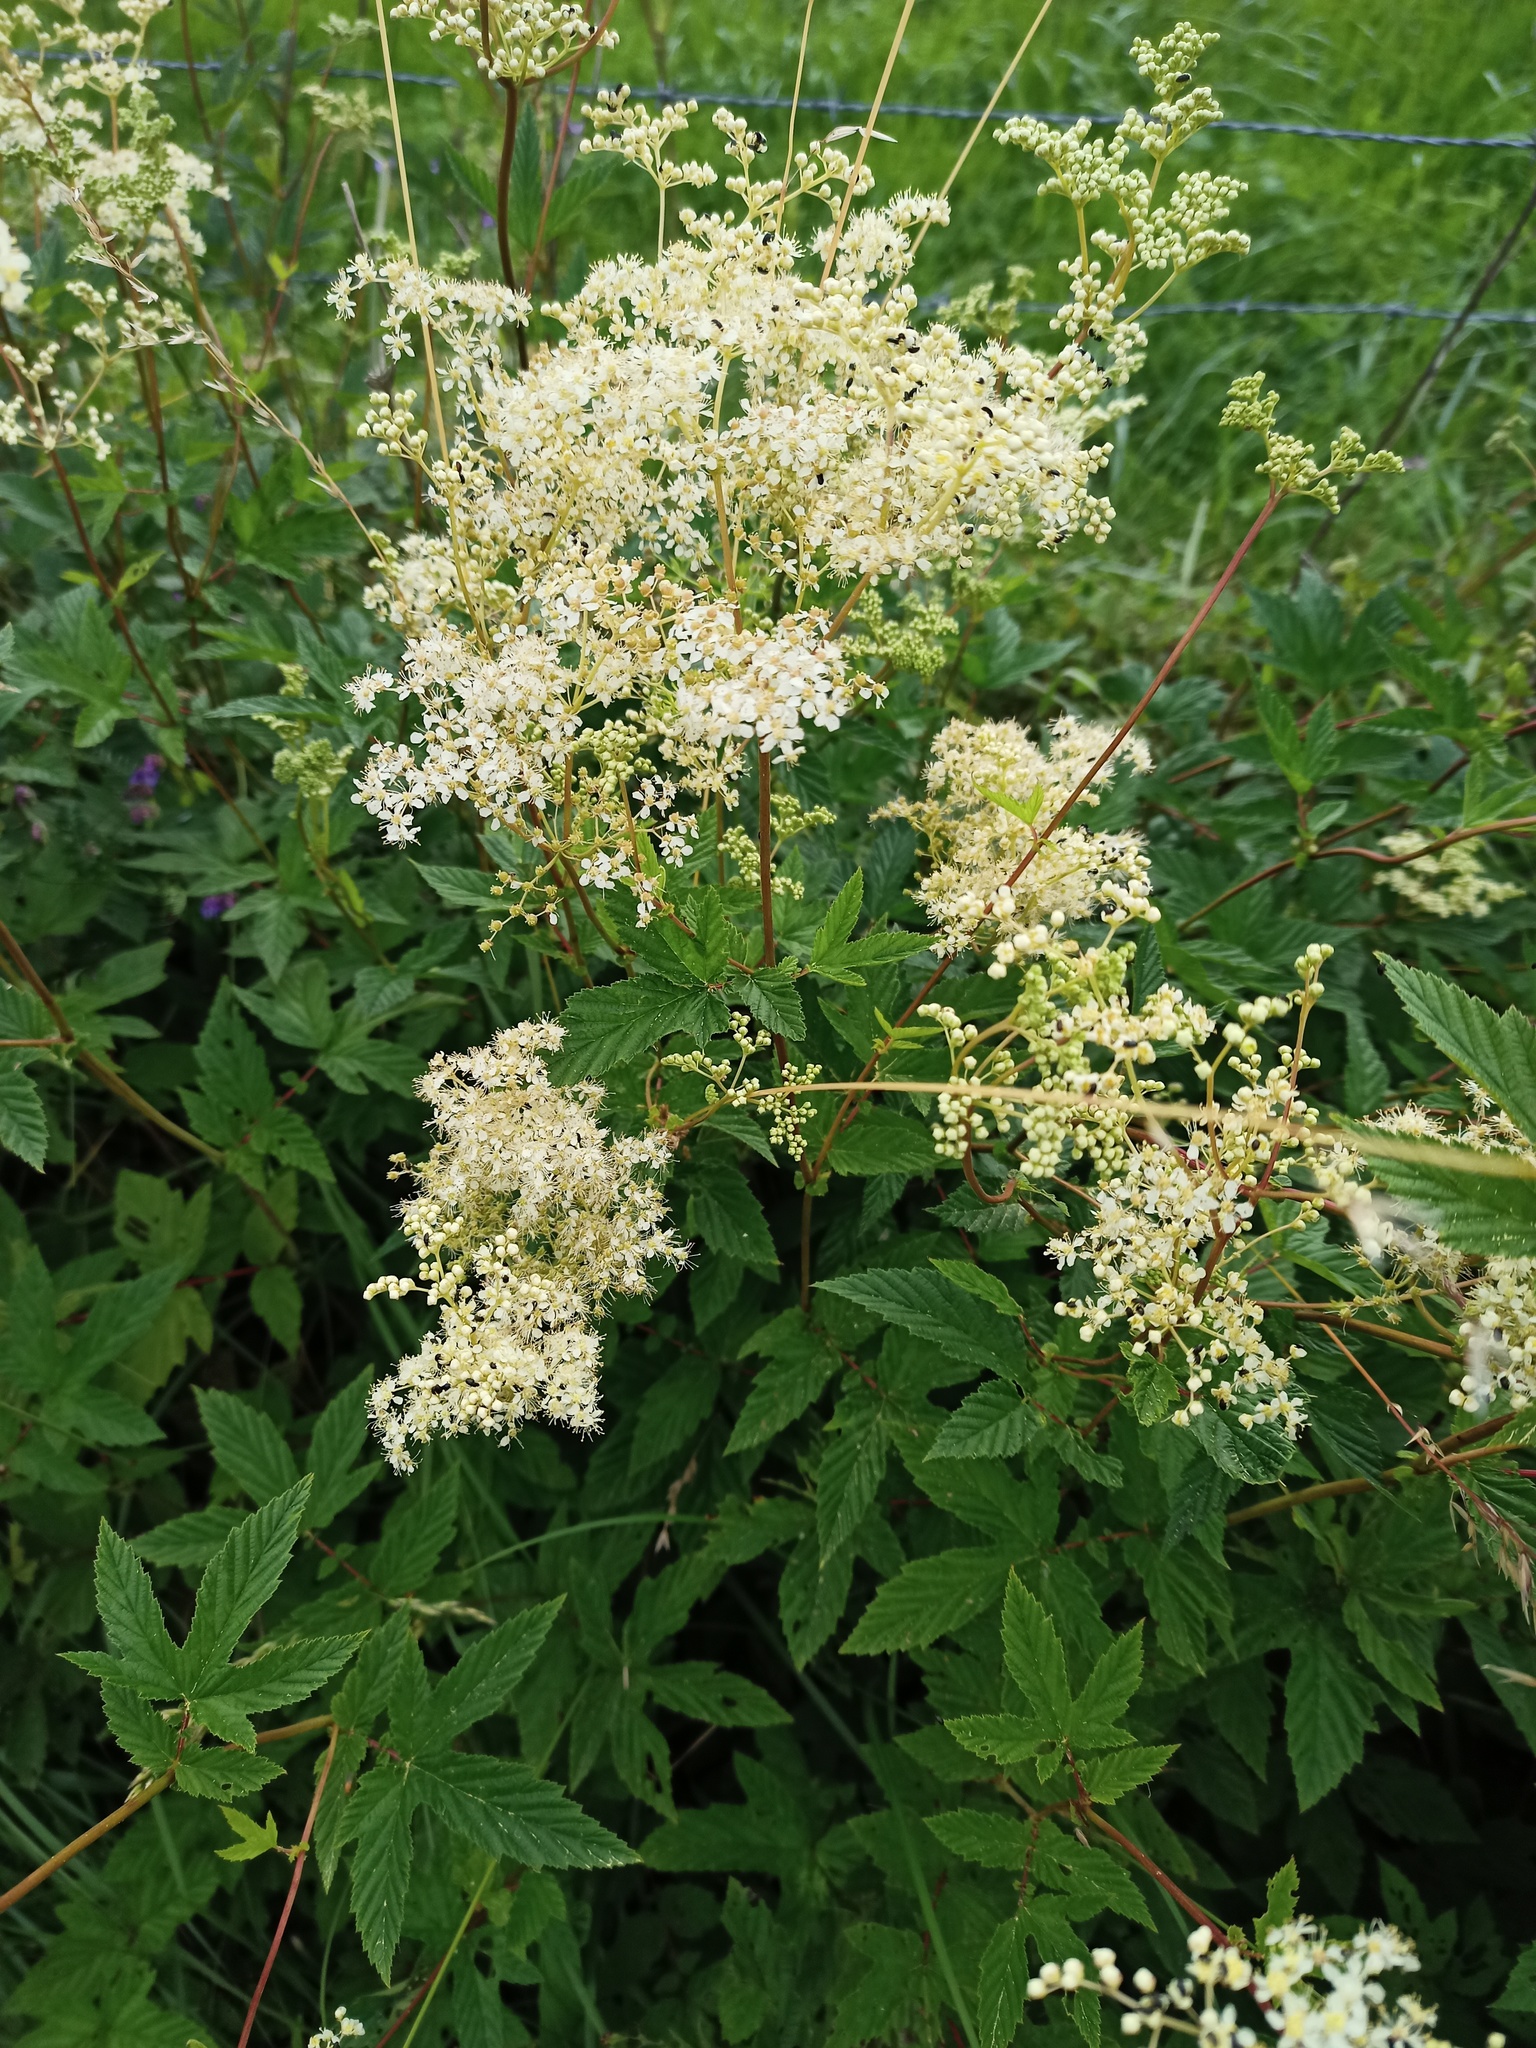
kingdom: Plantae
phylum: Tracheophyta
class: Magnoliopsida
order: Rosales
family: Rosaceae
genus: Filipendula
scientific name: Filipendula ulmaria
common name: Meadowsweet
